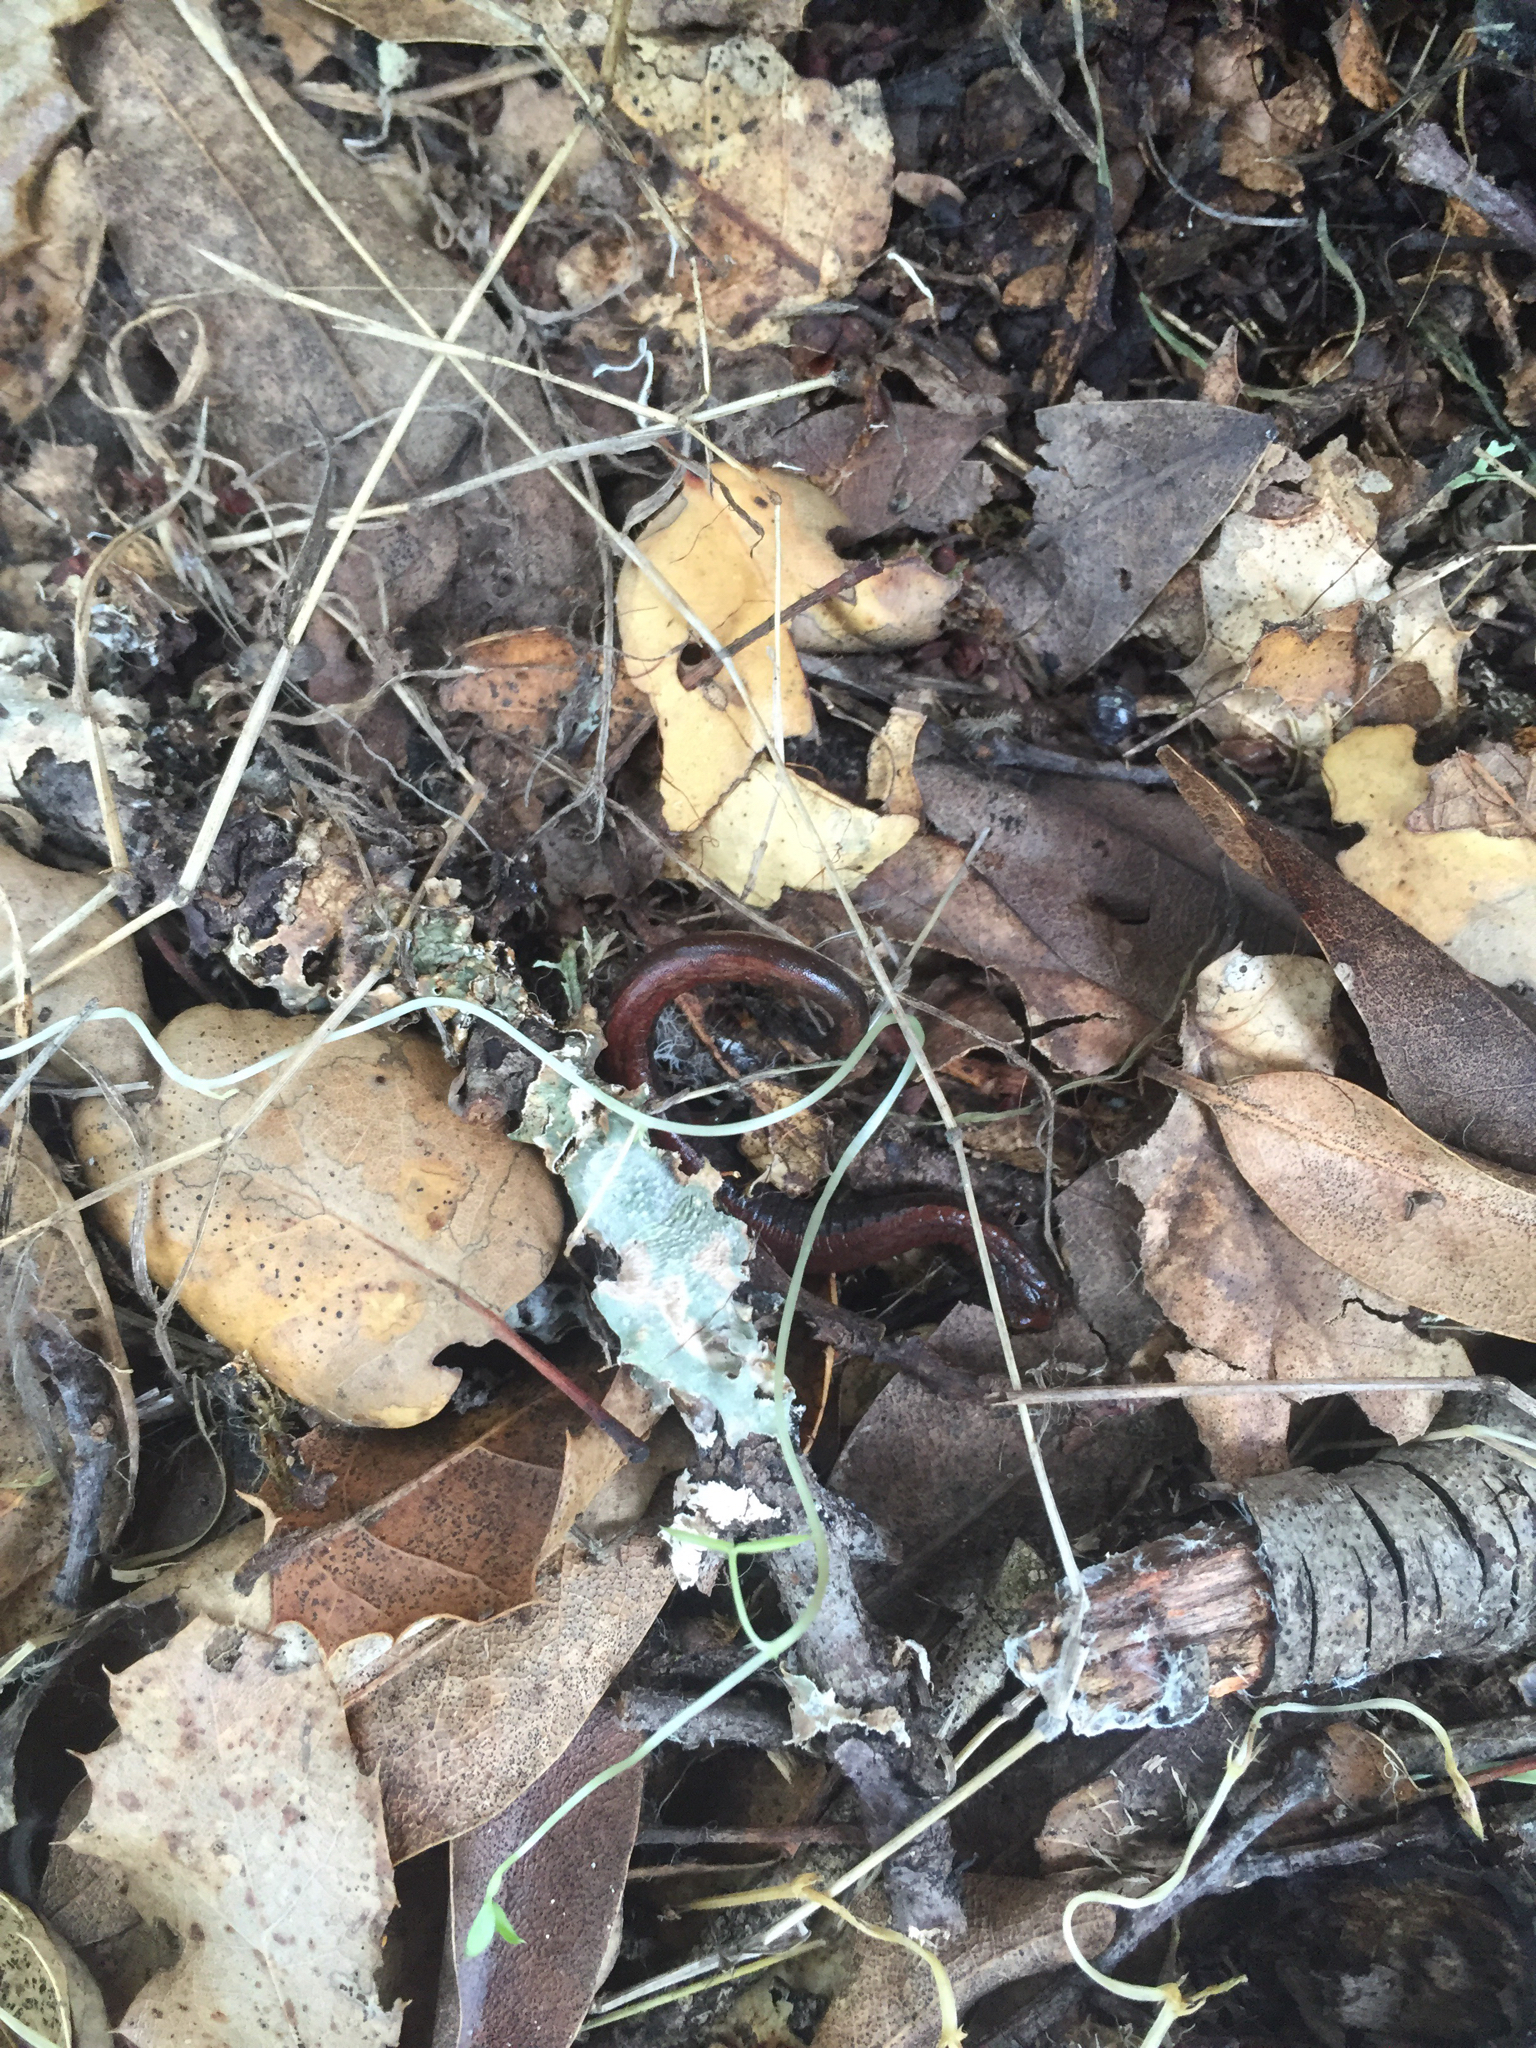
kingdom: Animalia
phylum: Chordata
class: Amphibia
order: Caudata
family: Plethodontidae
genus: Batrachoseps
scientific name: Batrachoseps attenuatus
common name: California slender salamander
